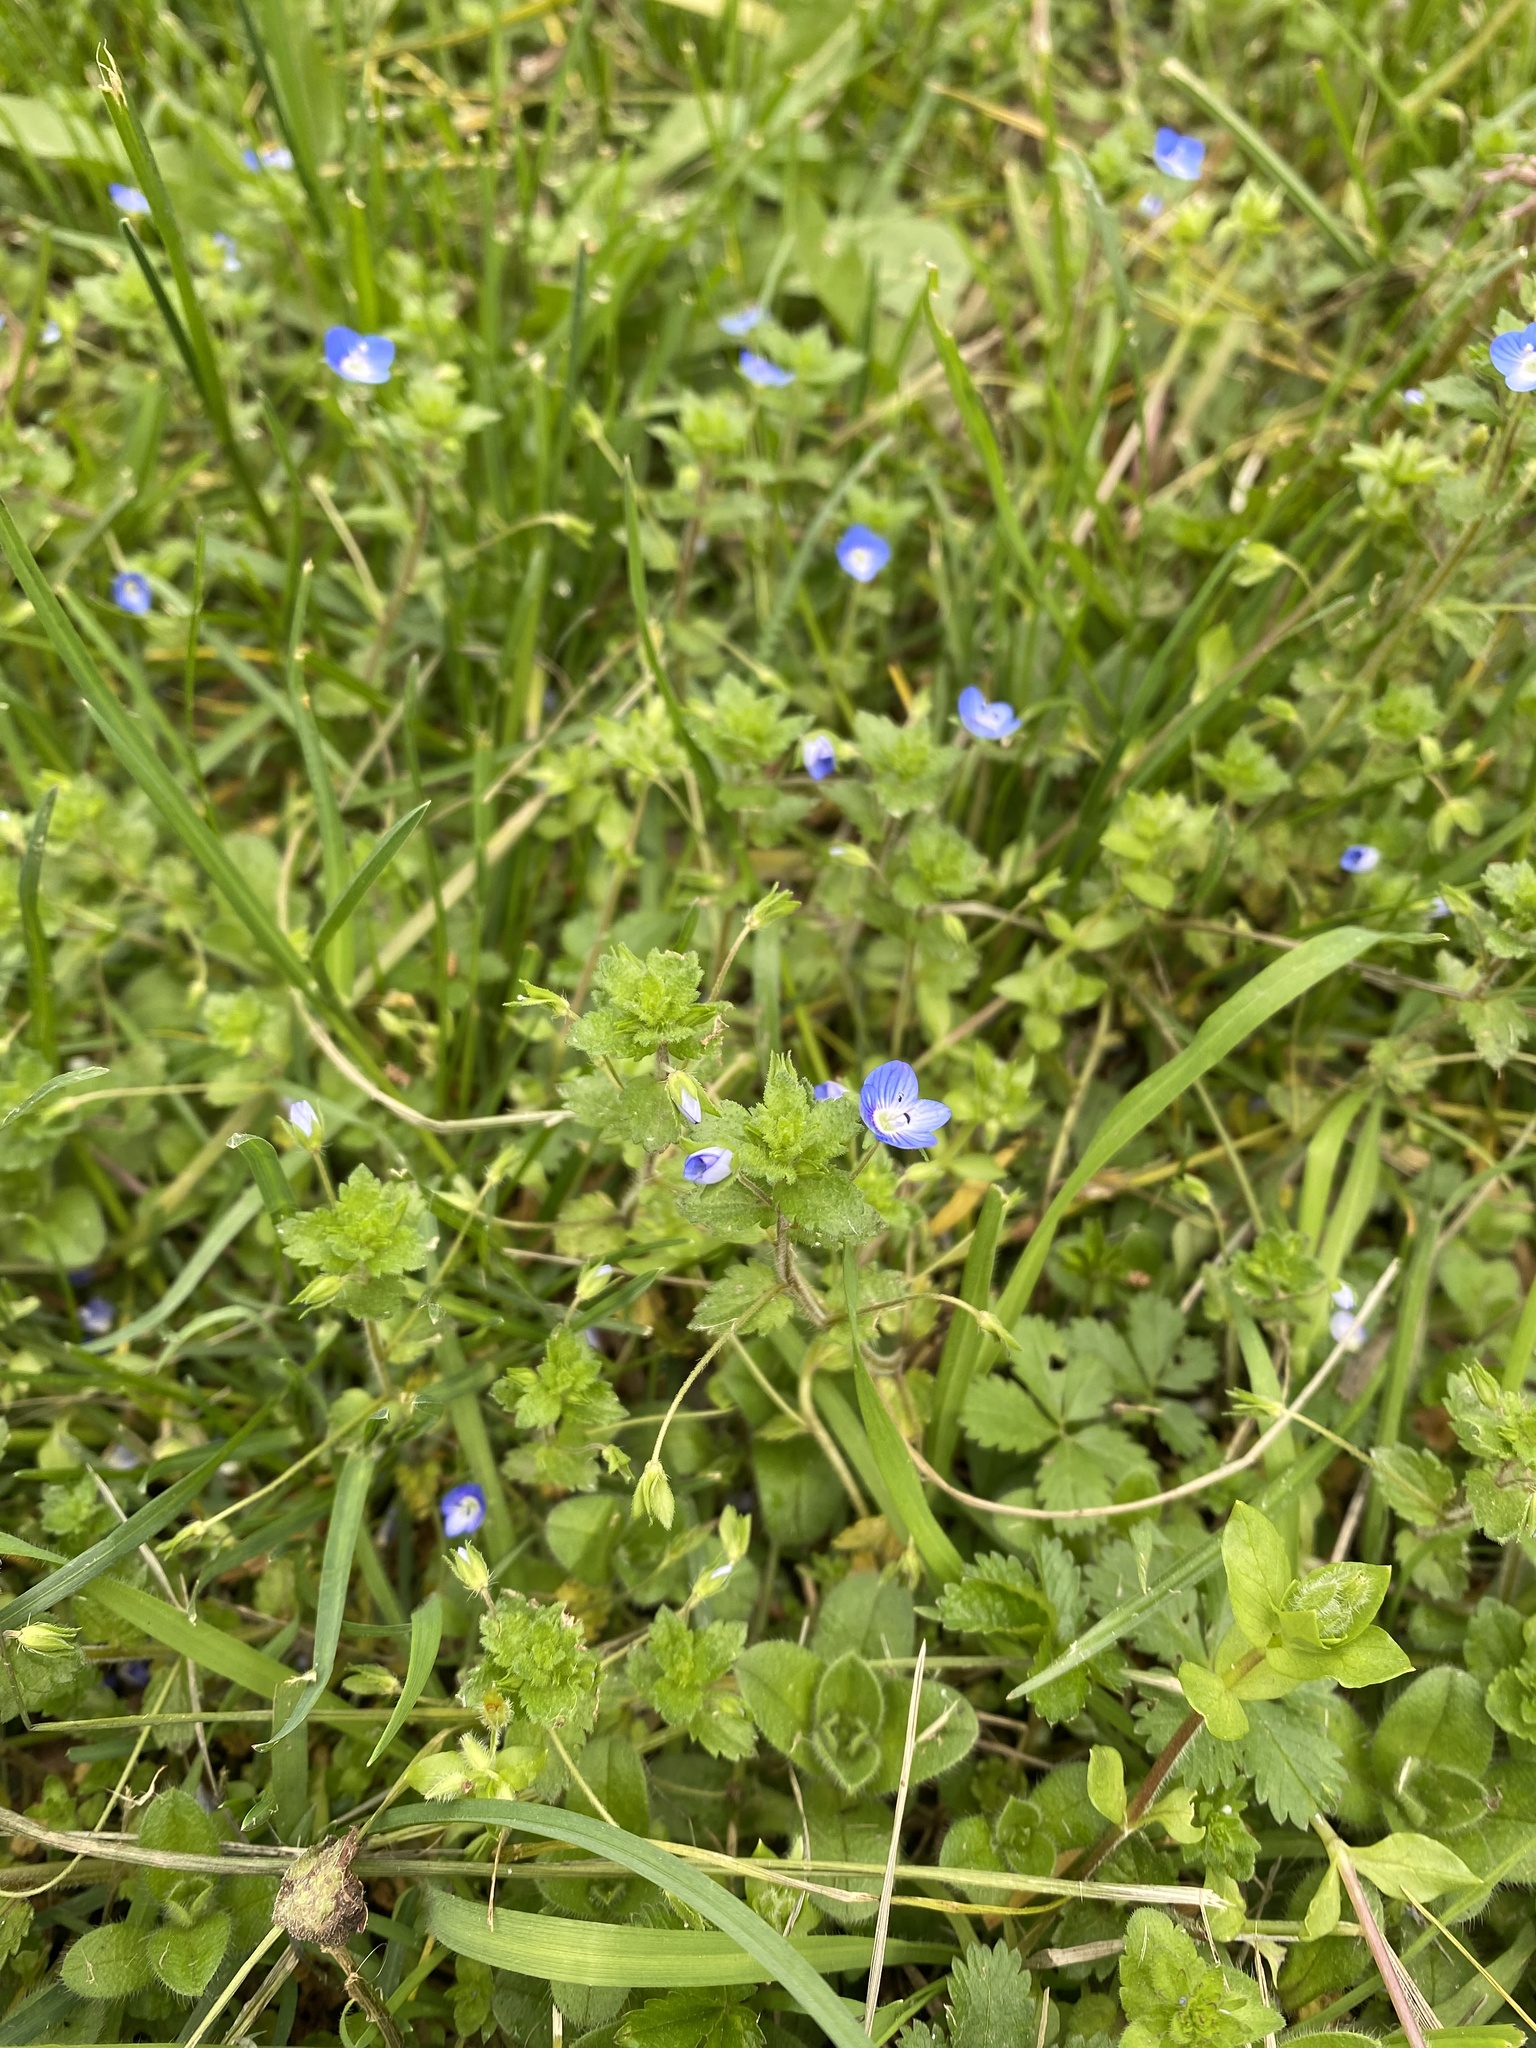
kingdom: Plantae
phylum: Tracheophyta
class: Magnoliopsida
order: Lamiales
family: Plantaginaceae
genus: Veronica
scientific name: Veronica persica
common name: Common field-speedwell
